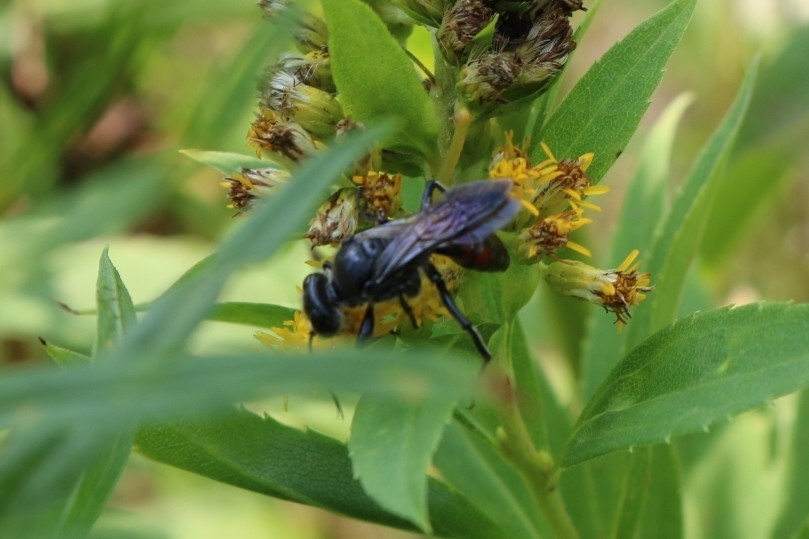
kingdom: Animalia
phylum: Arthropoda
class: Insecta
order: Hymenoptera
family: Crabronidae
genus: Astata
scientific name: Astata
